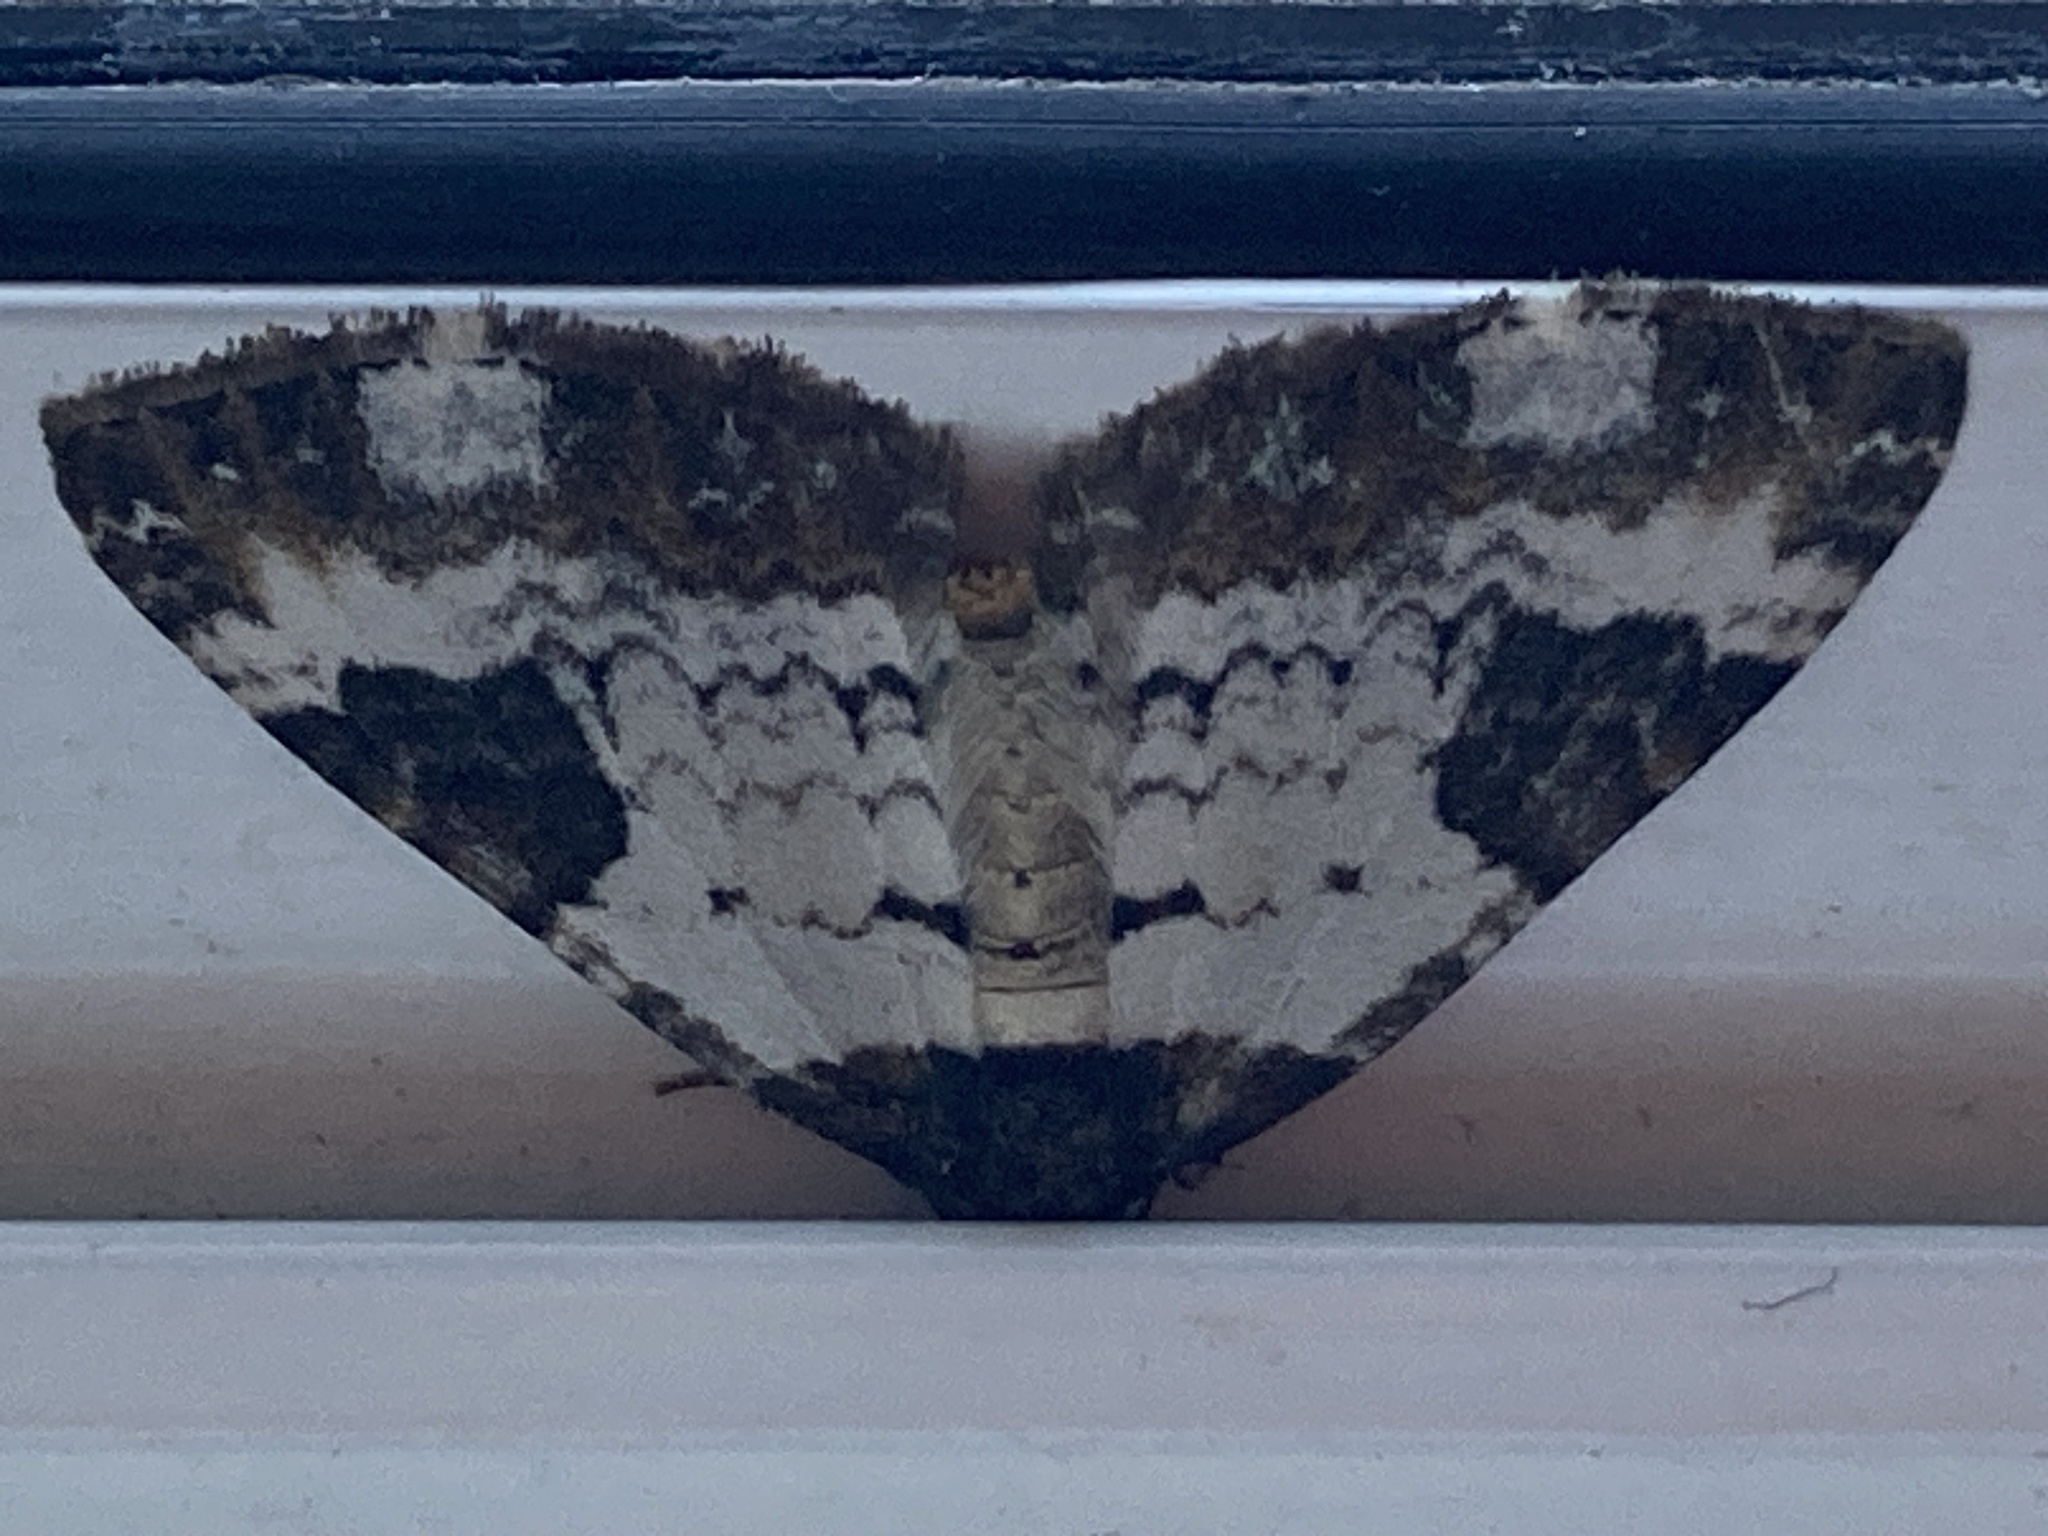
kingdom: Animalia
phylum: Arthropoda
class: Insecta
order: Lepidoptera
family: Geometridae
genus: Melanthia
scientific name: Melanthia procellata
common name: Pretty chalk carpet
